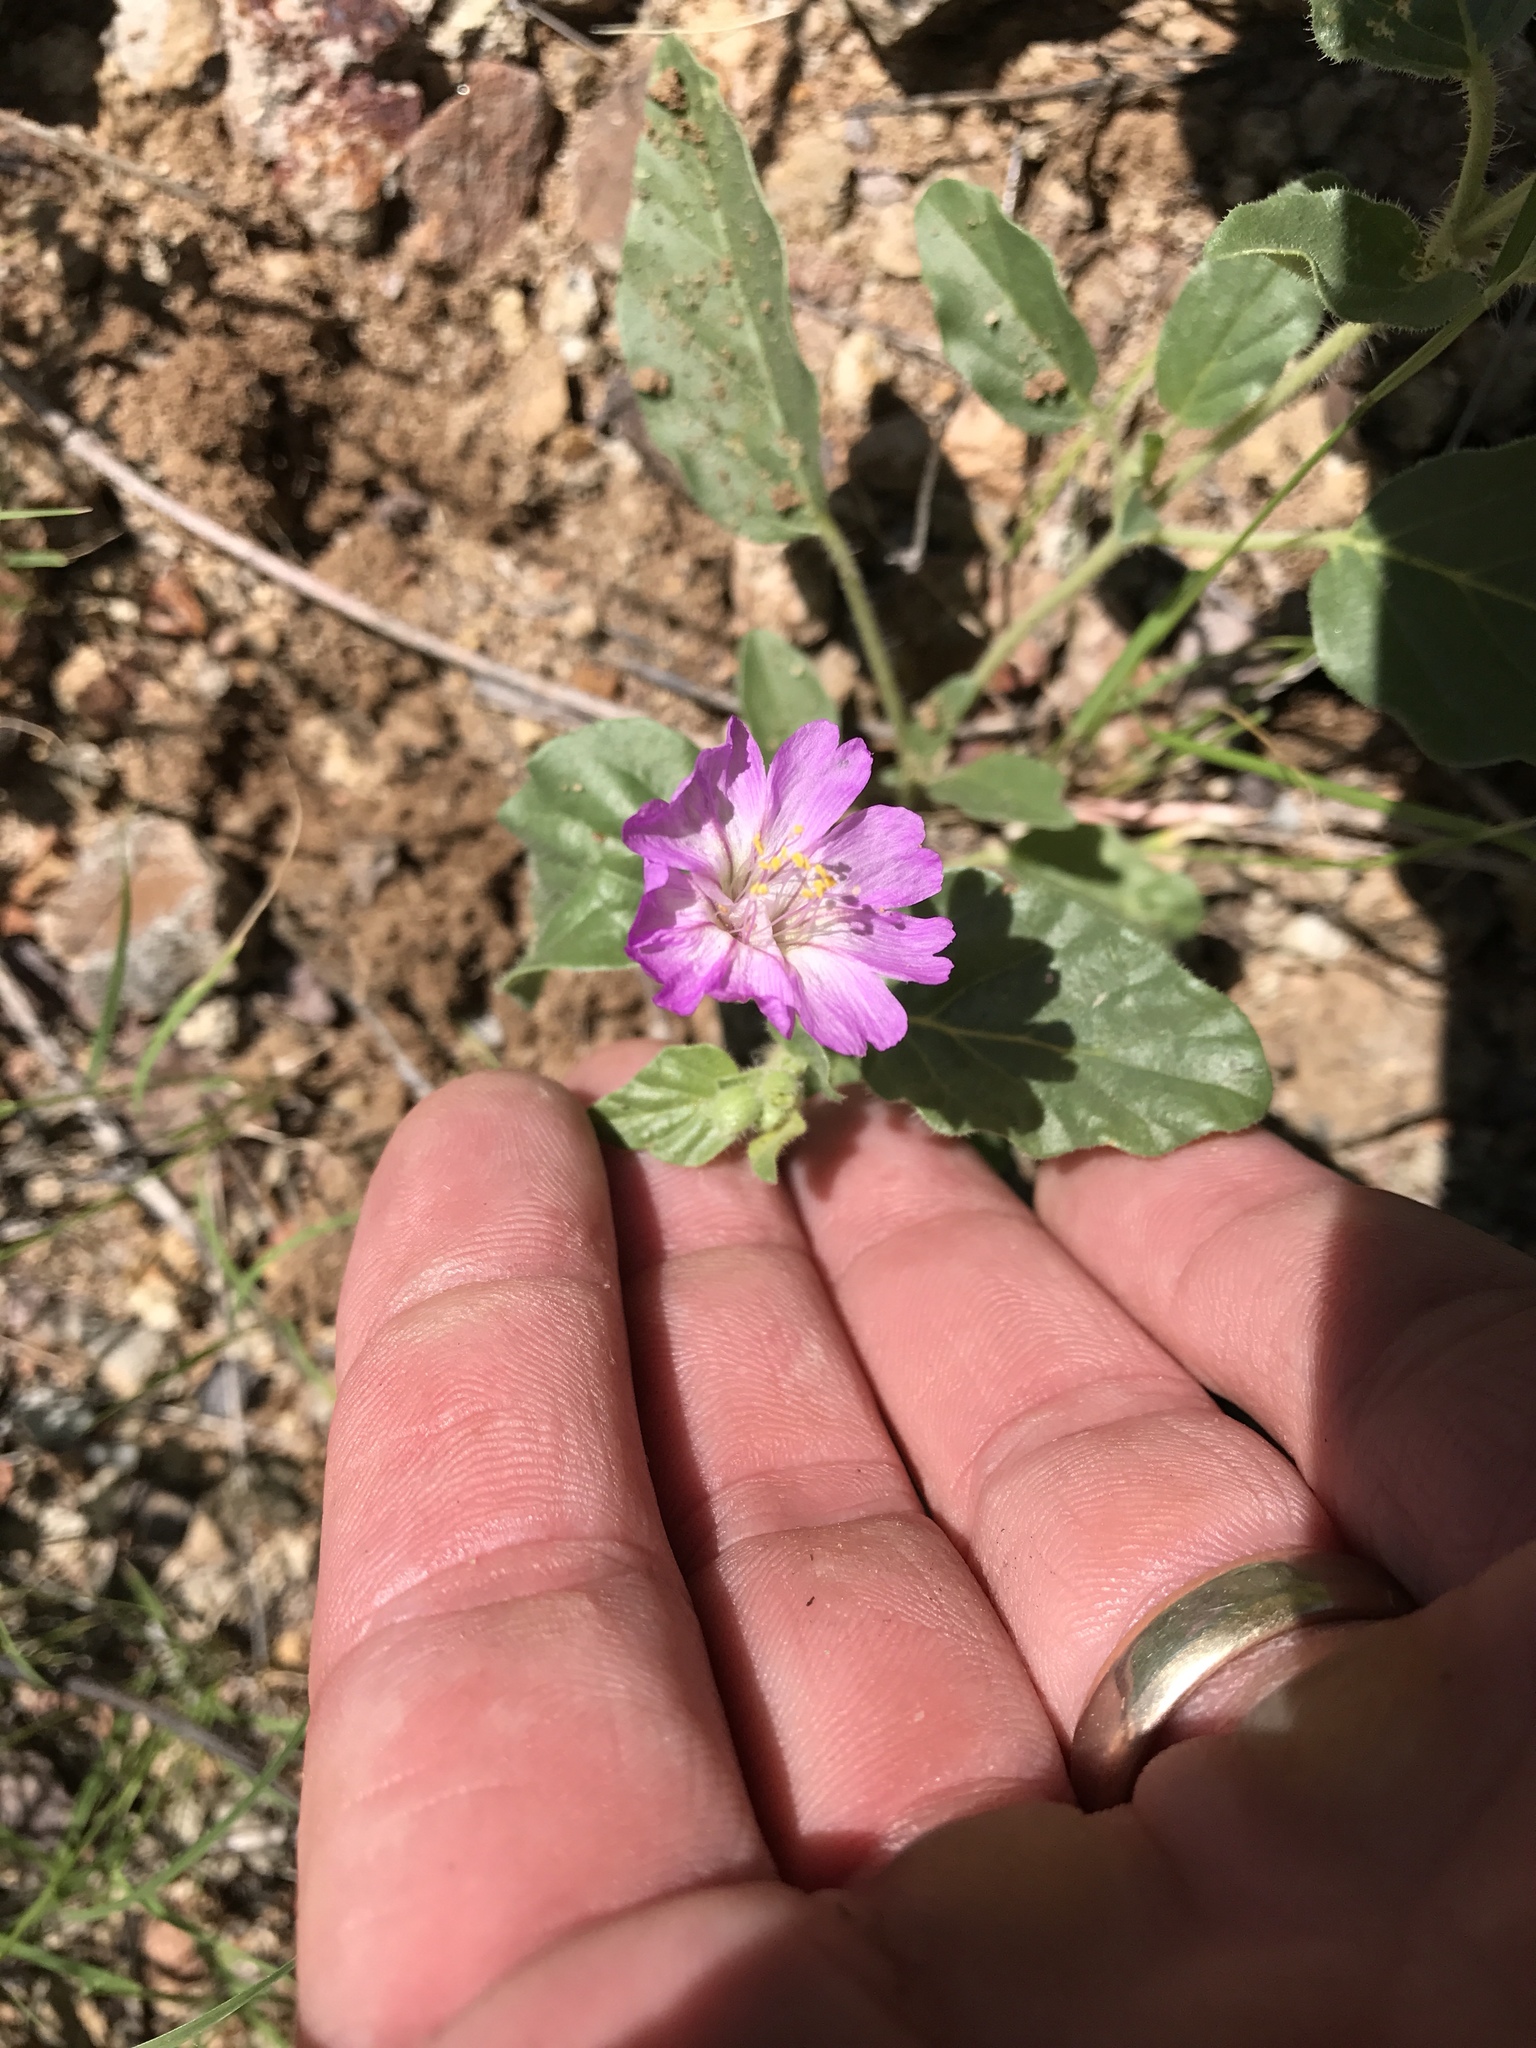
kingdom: Plantae
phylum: Tracheophyta
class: Magnoliopsida
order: Caryophyllales
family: Nyctaginaceae
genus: Allionia
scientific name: Allionia incarnata
